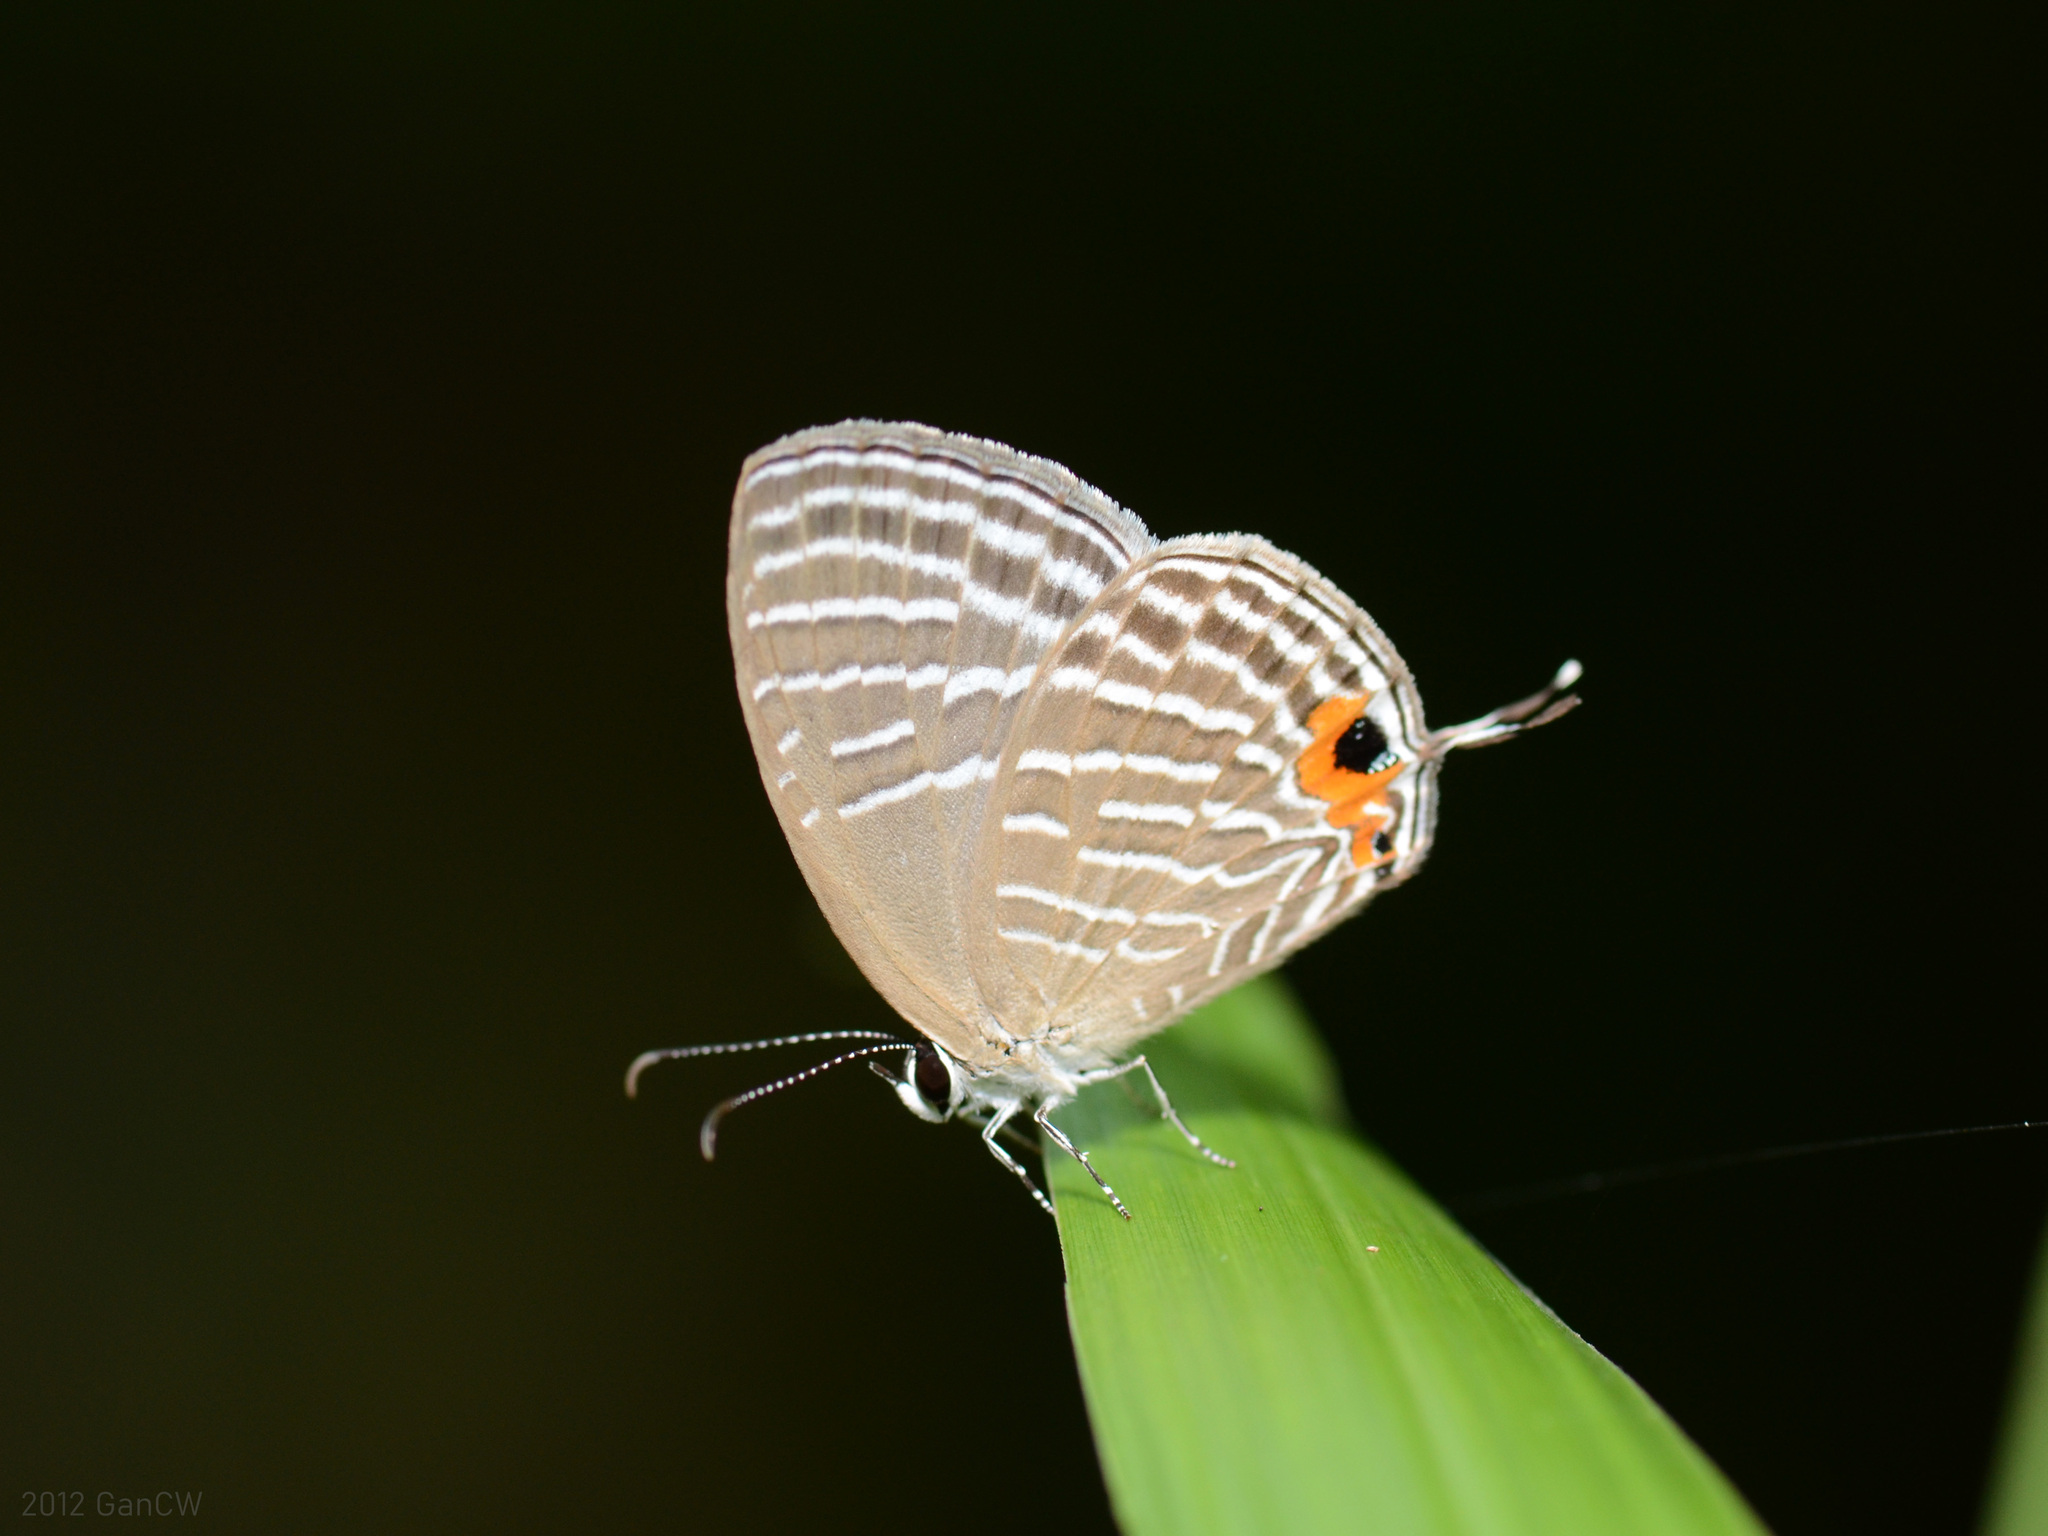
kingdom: Animalia
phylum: Arthropoda
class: Insecta
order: Lepidoptera
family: Lycaenidae
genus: Jamides
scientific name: Jamides celeno
